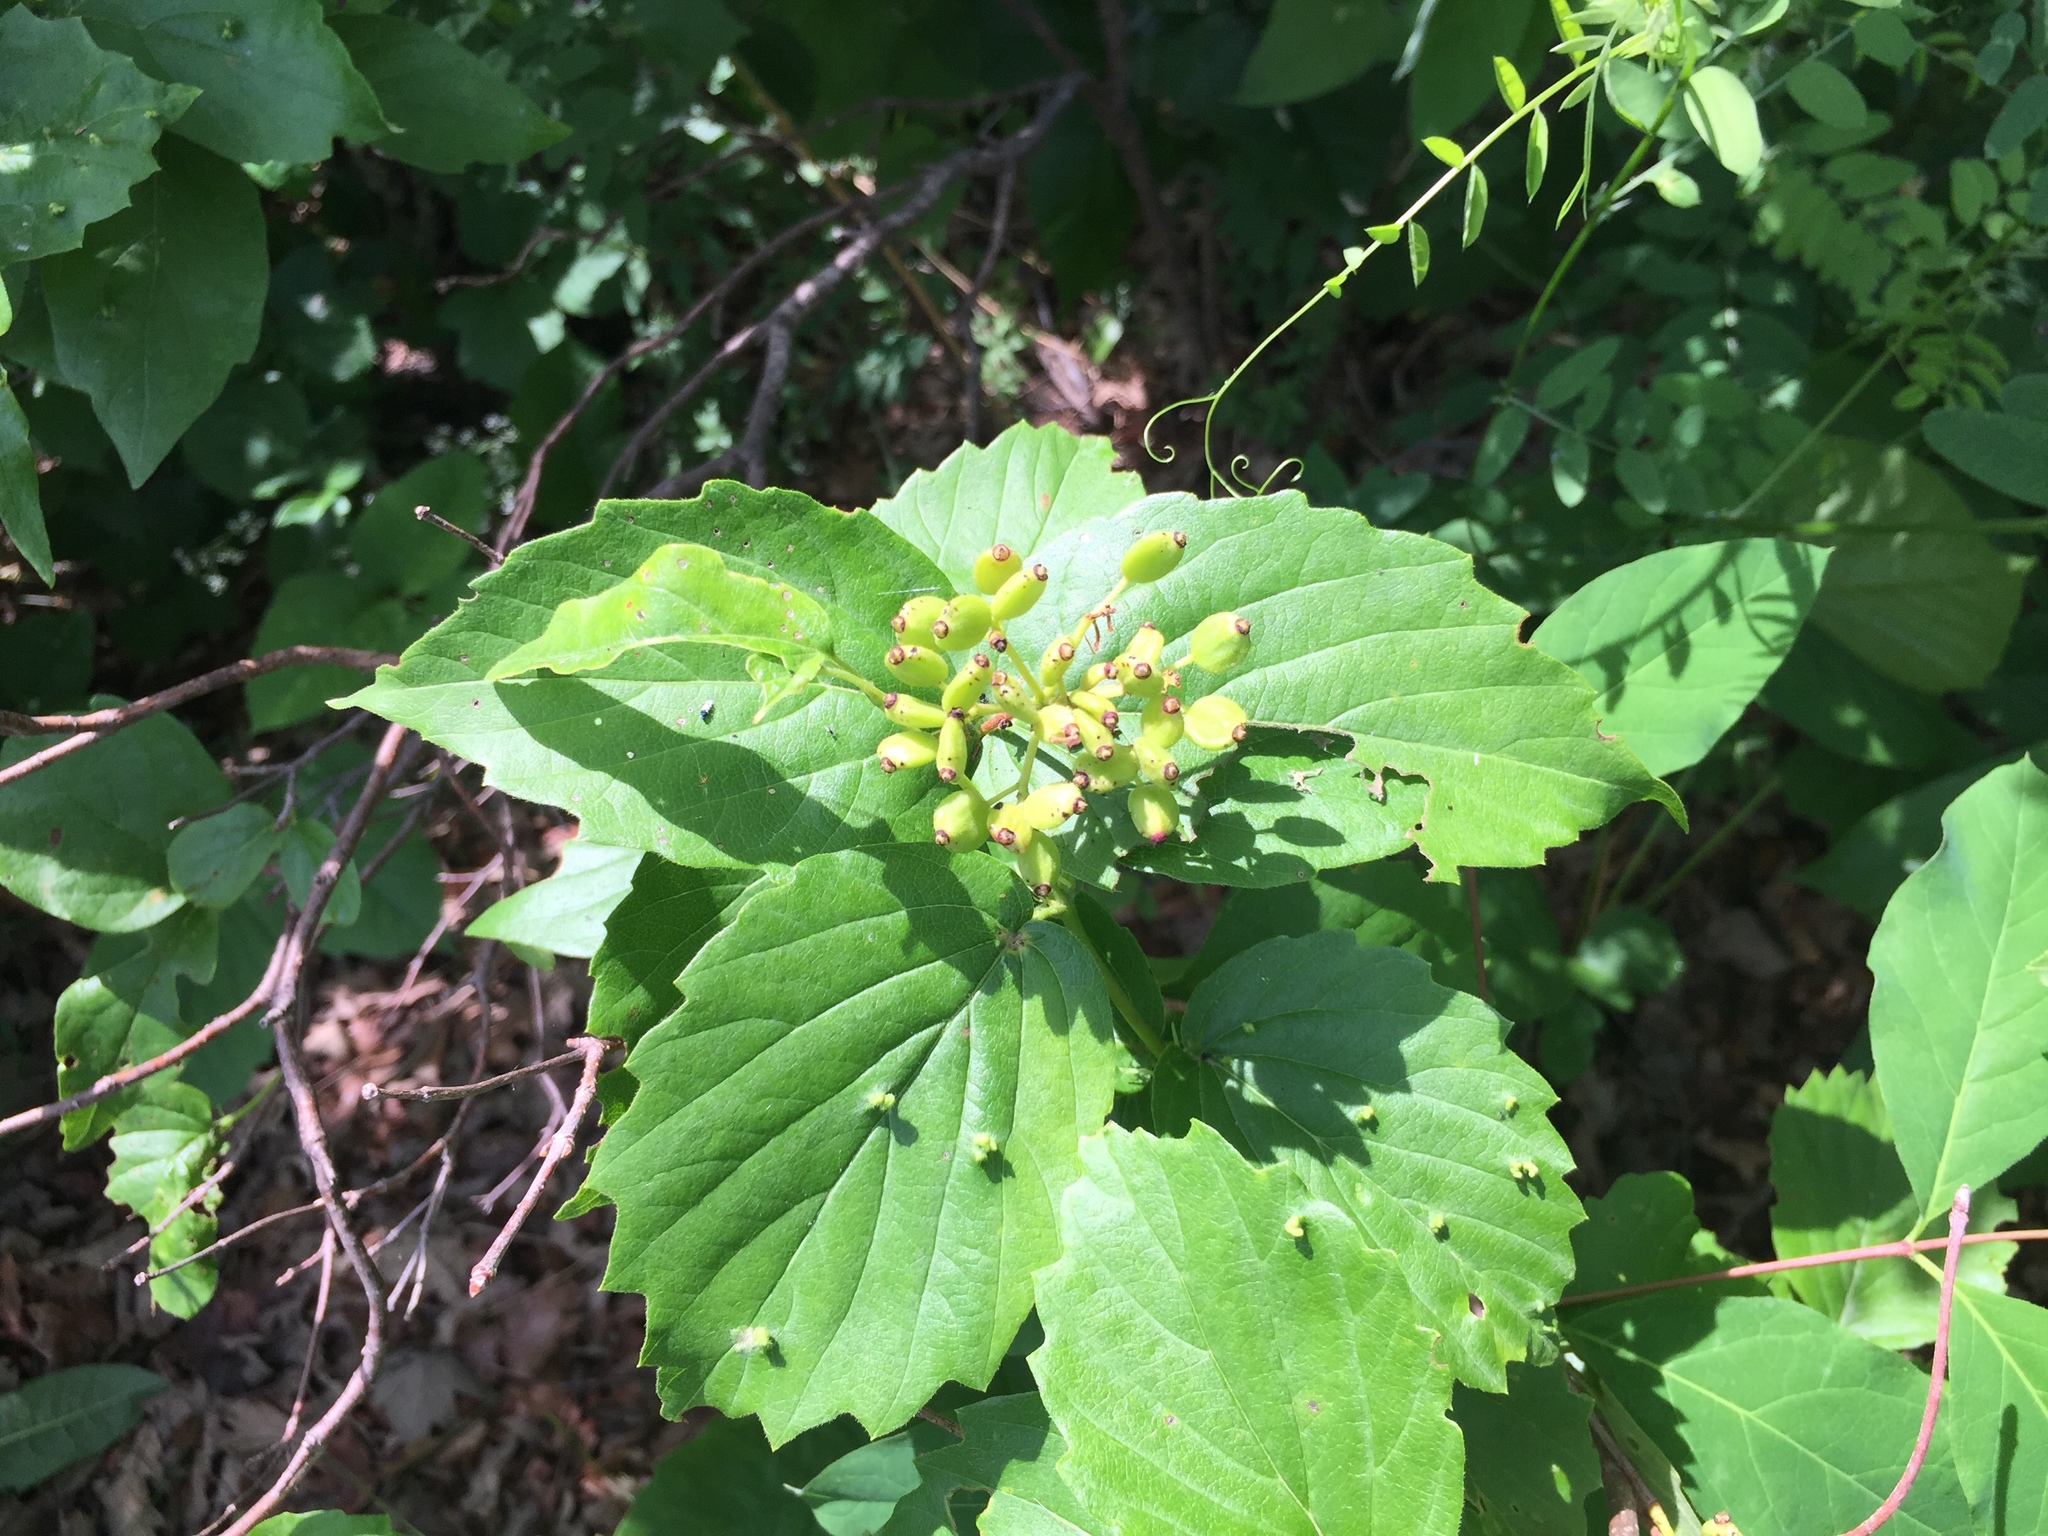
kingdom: Plantae
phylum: Tracheophyta
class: Magnoliopsida
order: Dipsacales
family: Viburnaceae
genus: Viburnum
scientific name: Viburnum rafinesqueanum
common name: Downy arrow-wood
